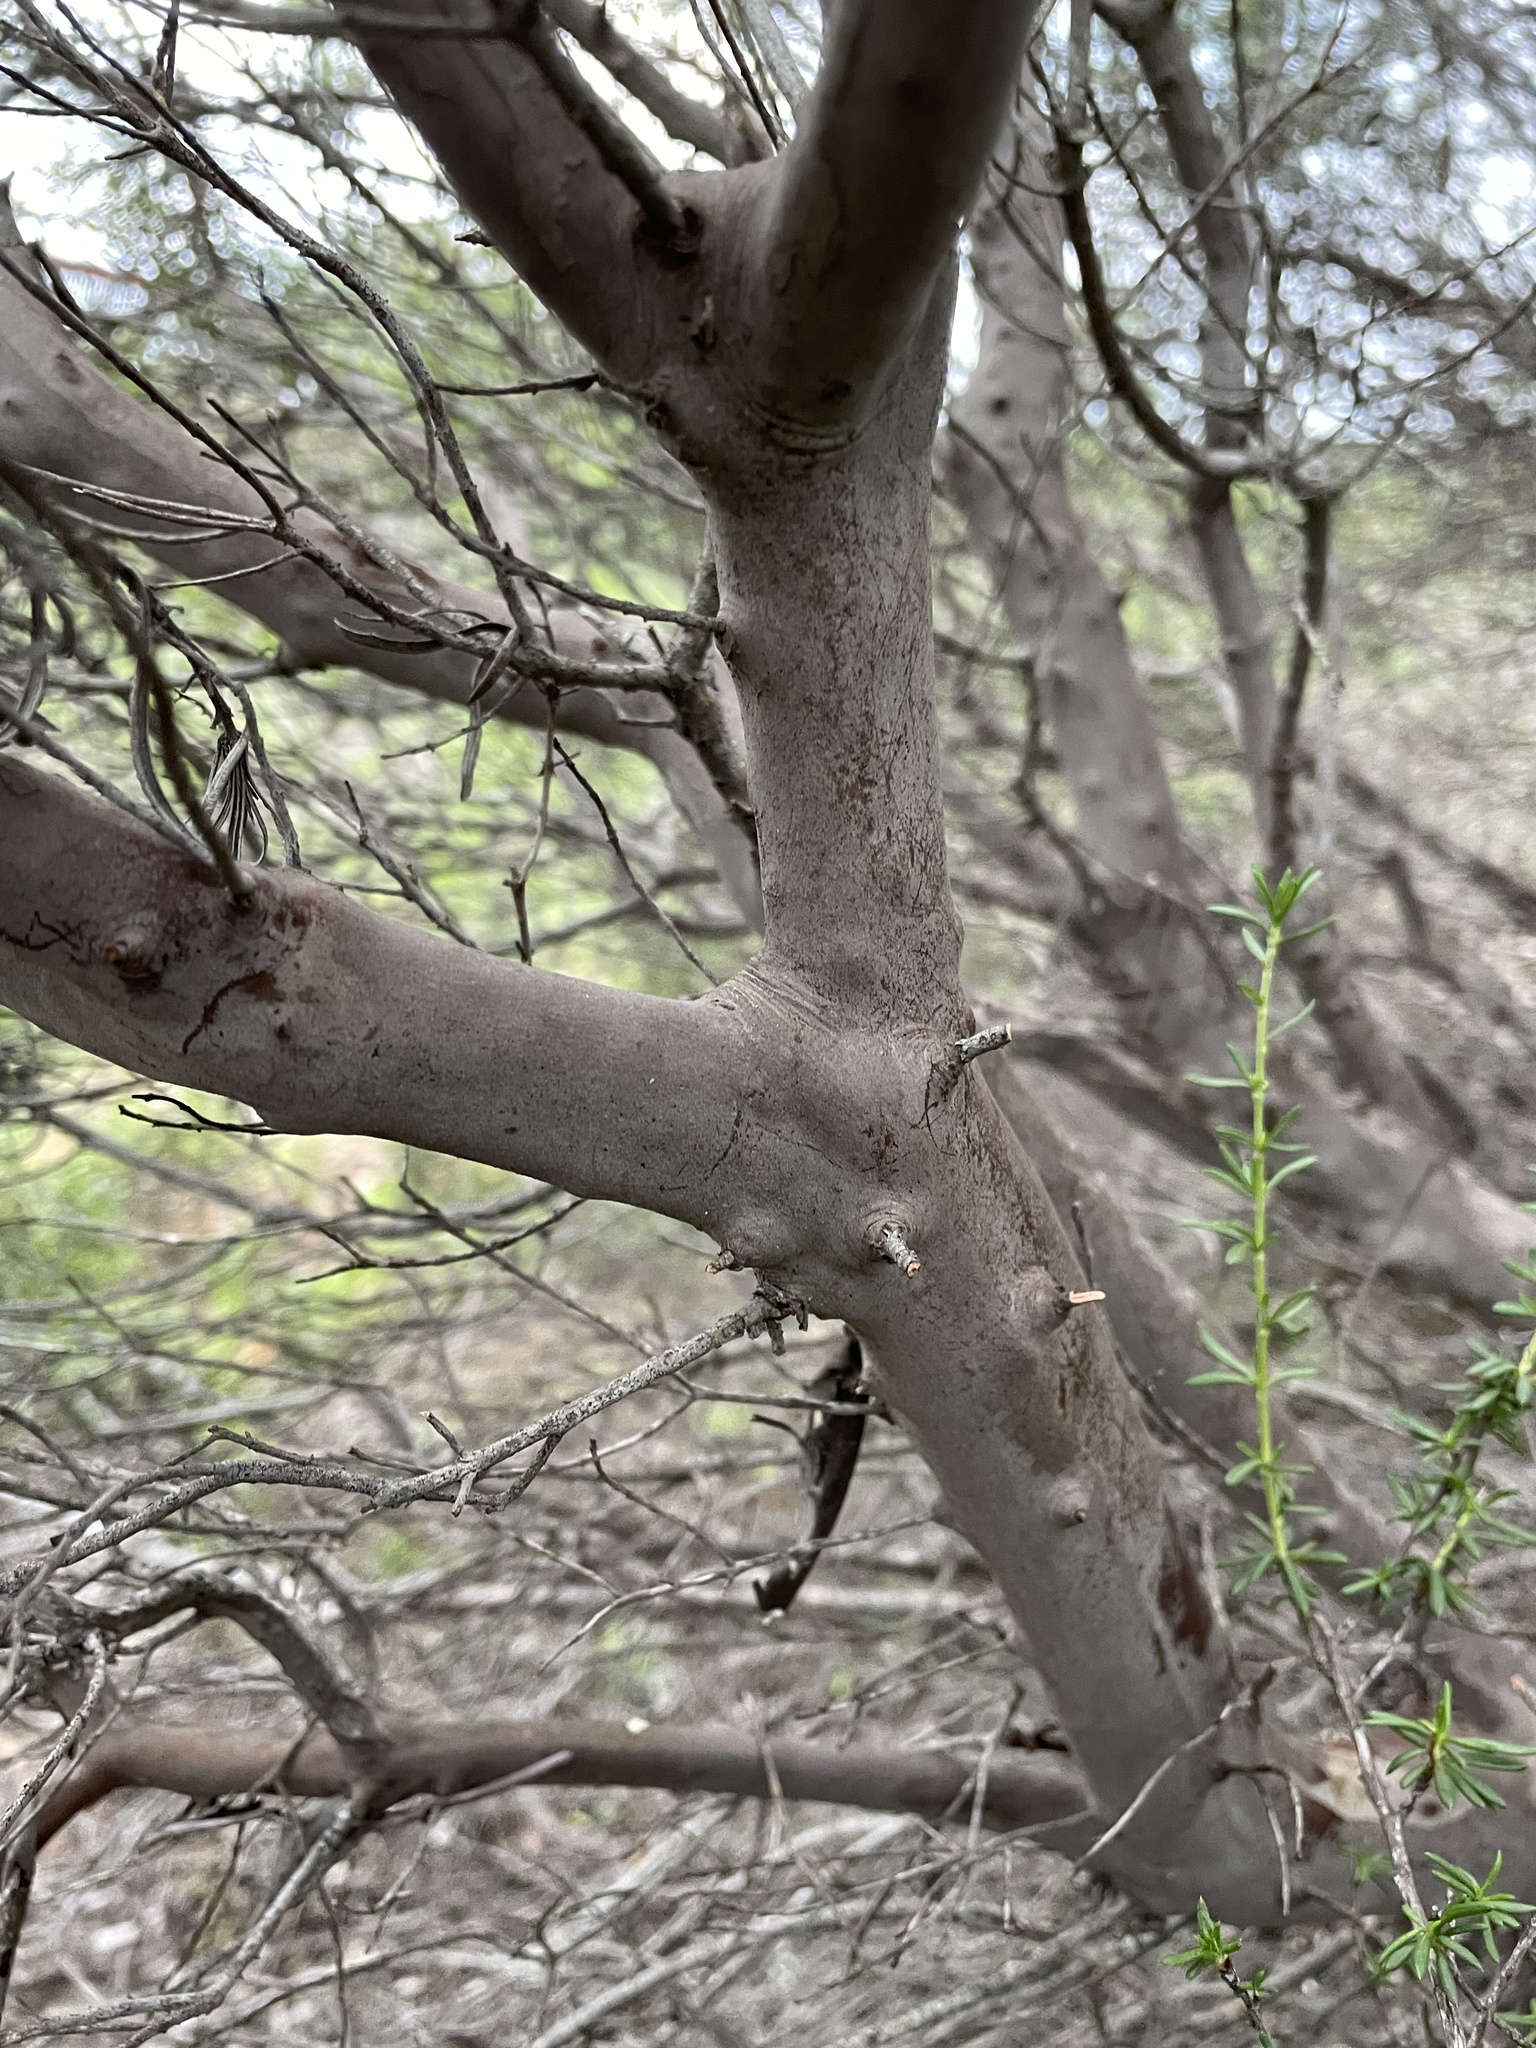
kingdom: Plantae
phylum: Tracheophyta
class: Magnoliopsida
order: Ericales
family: Ericaceae
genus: Ornithostaphylos
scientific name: Ornithostaphylos oppositifolia
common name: Baja california birdbush
